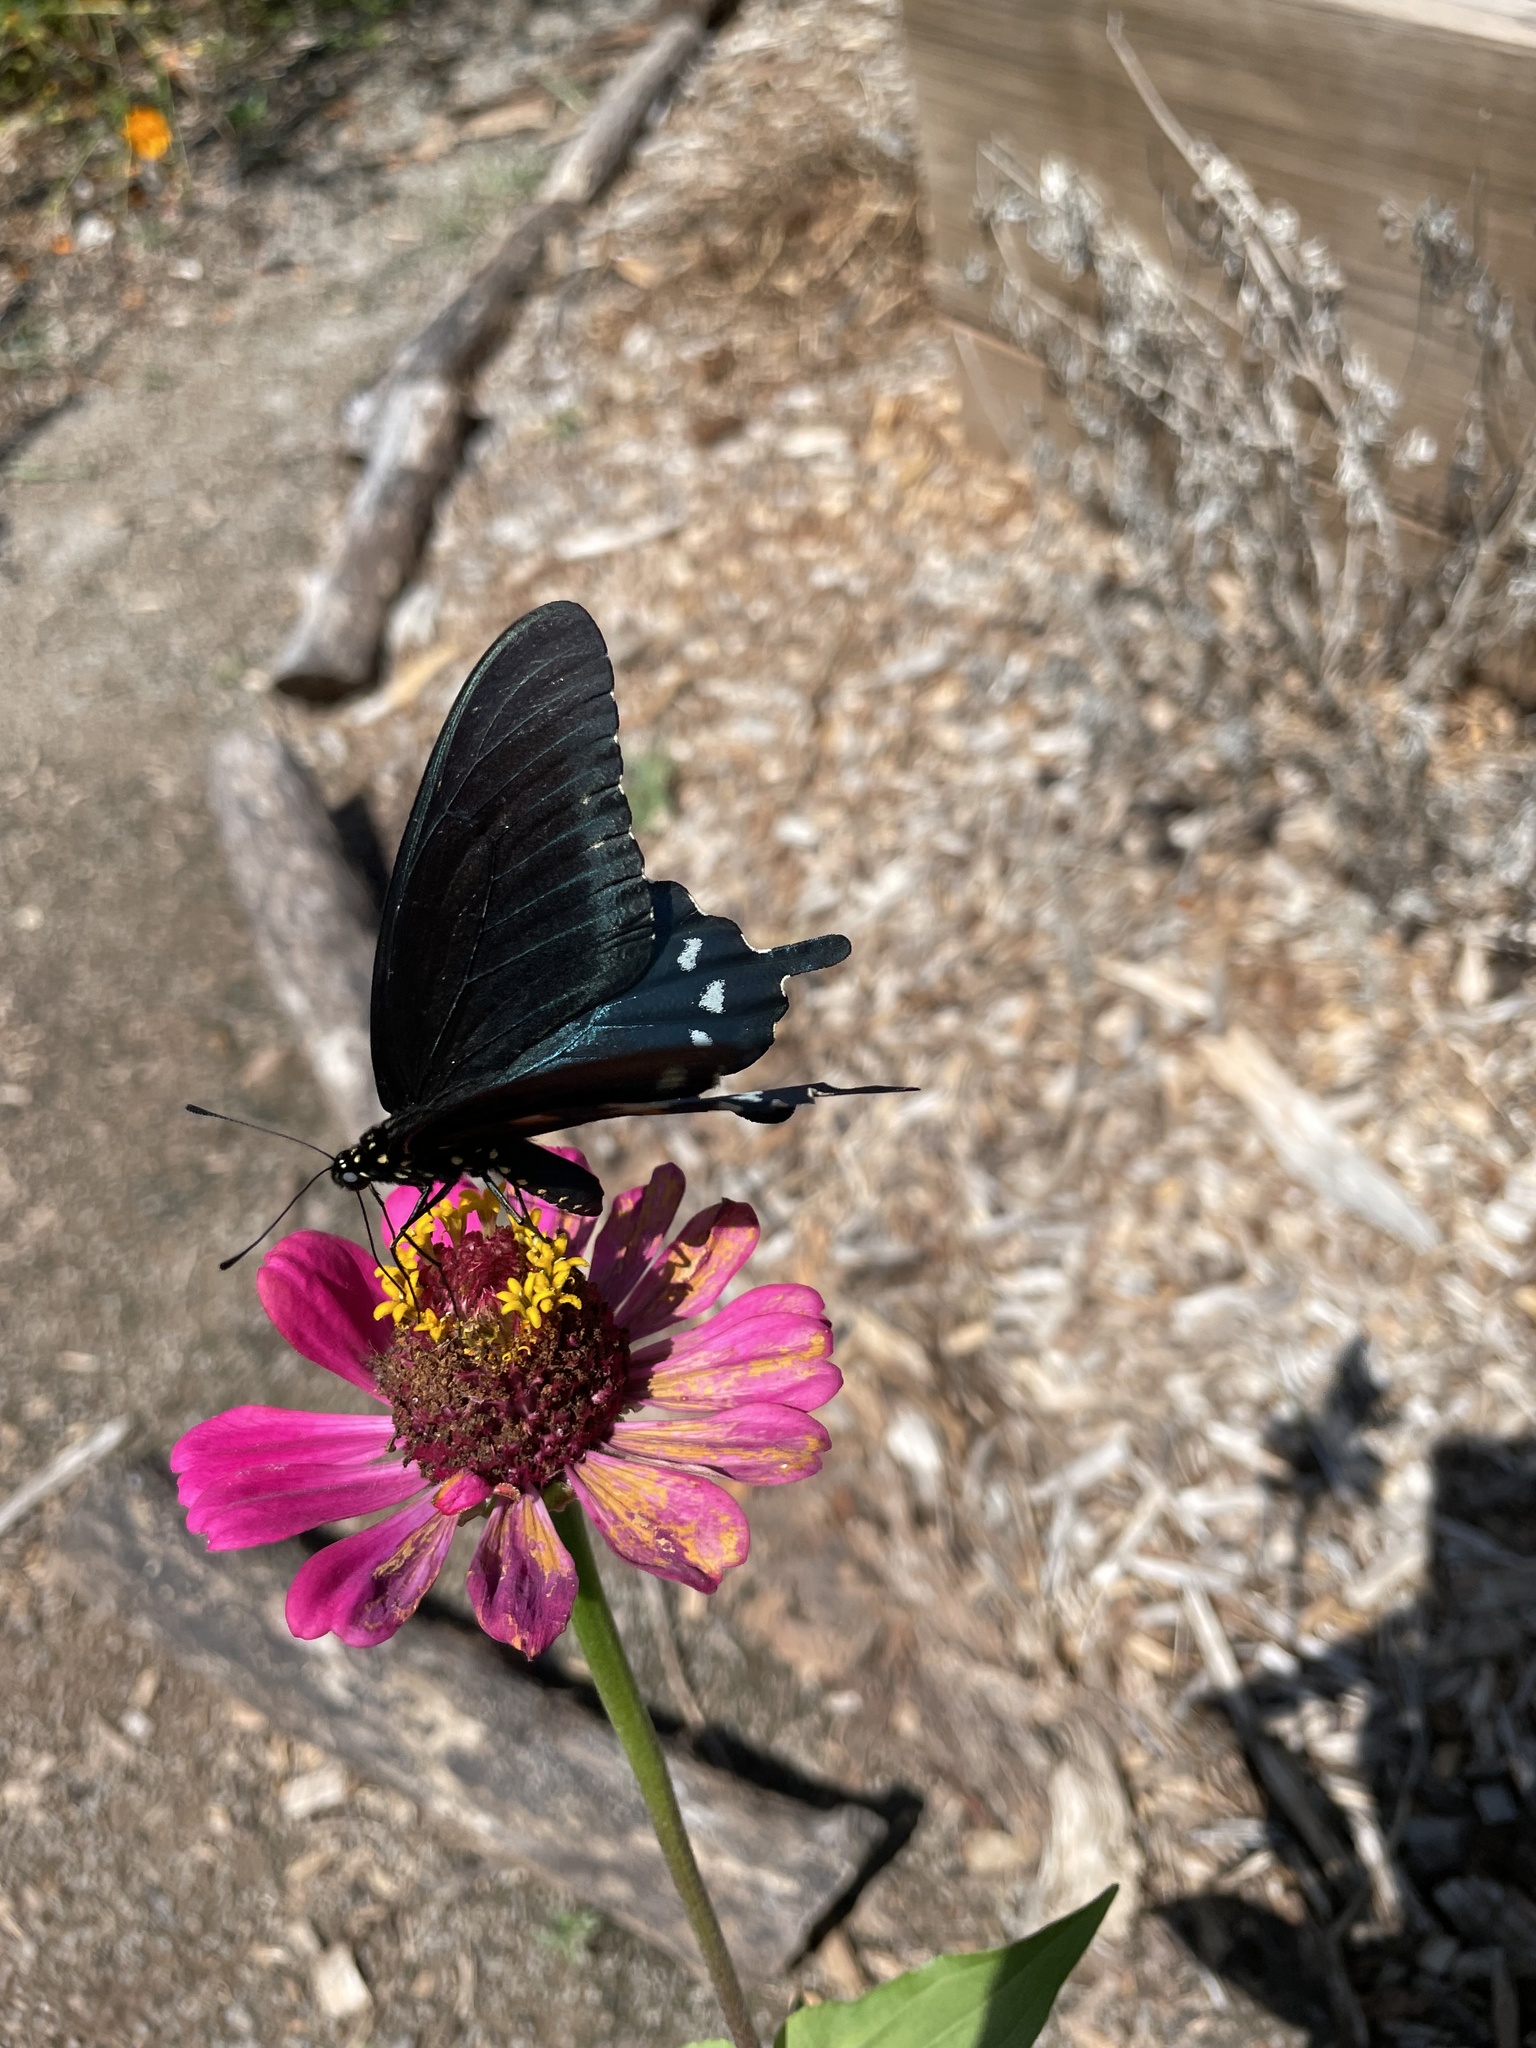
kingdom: Animalia
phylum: Arthropoda
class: Insecta
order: Lepidoptera
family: Papilionidae
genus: Battus
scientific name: Battus philenor
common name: Pipevine swallowtail
